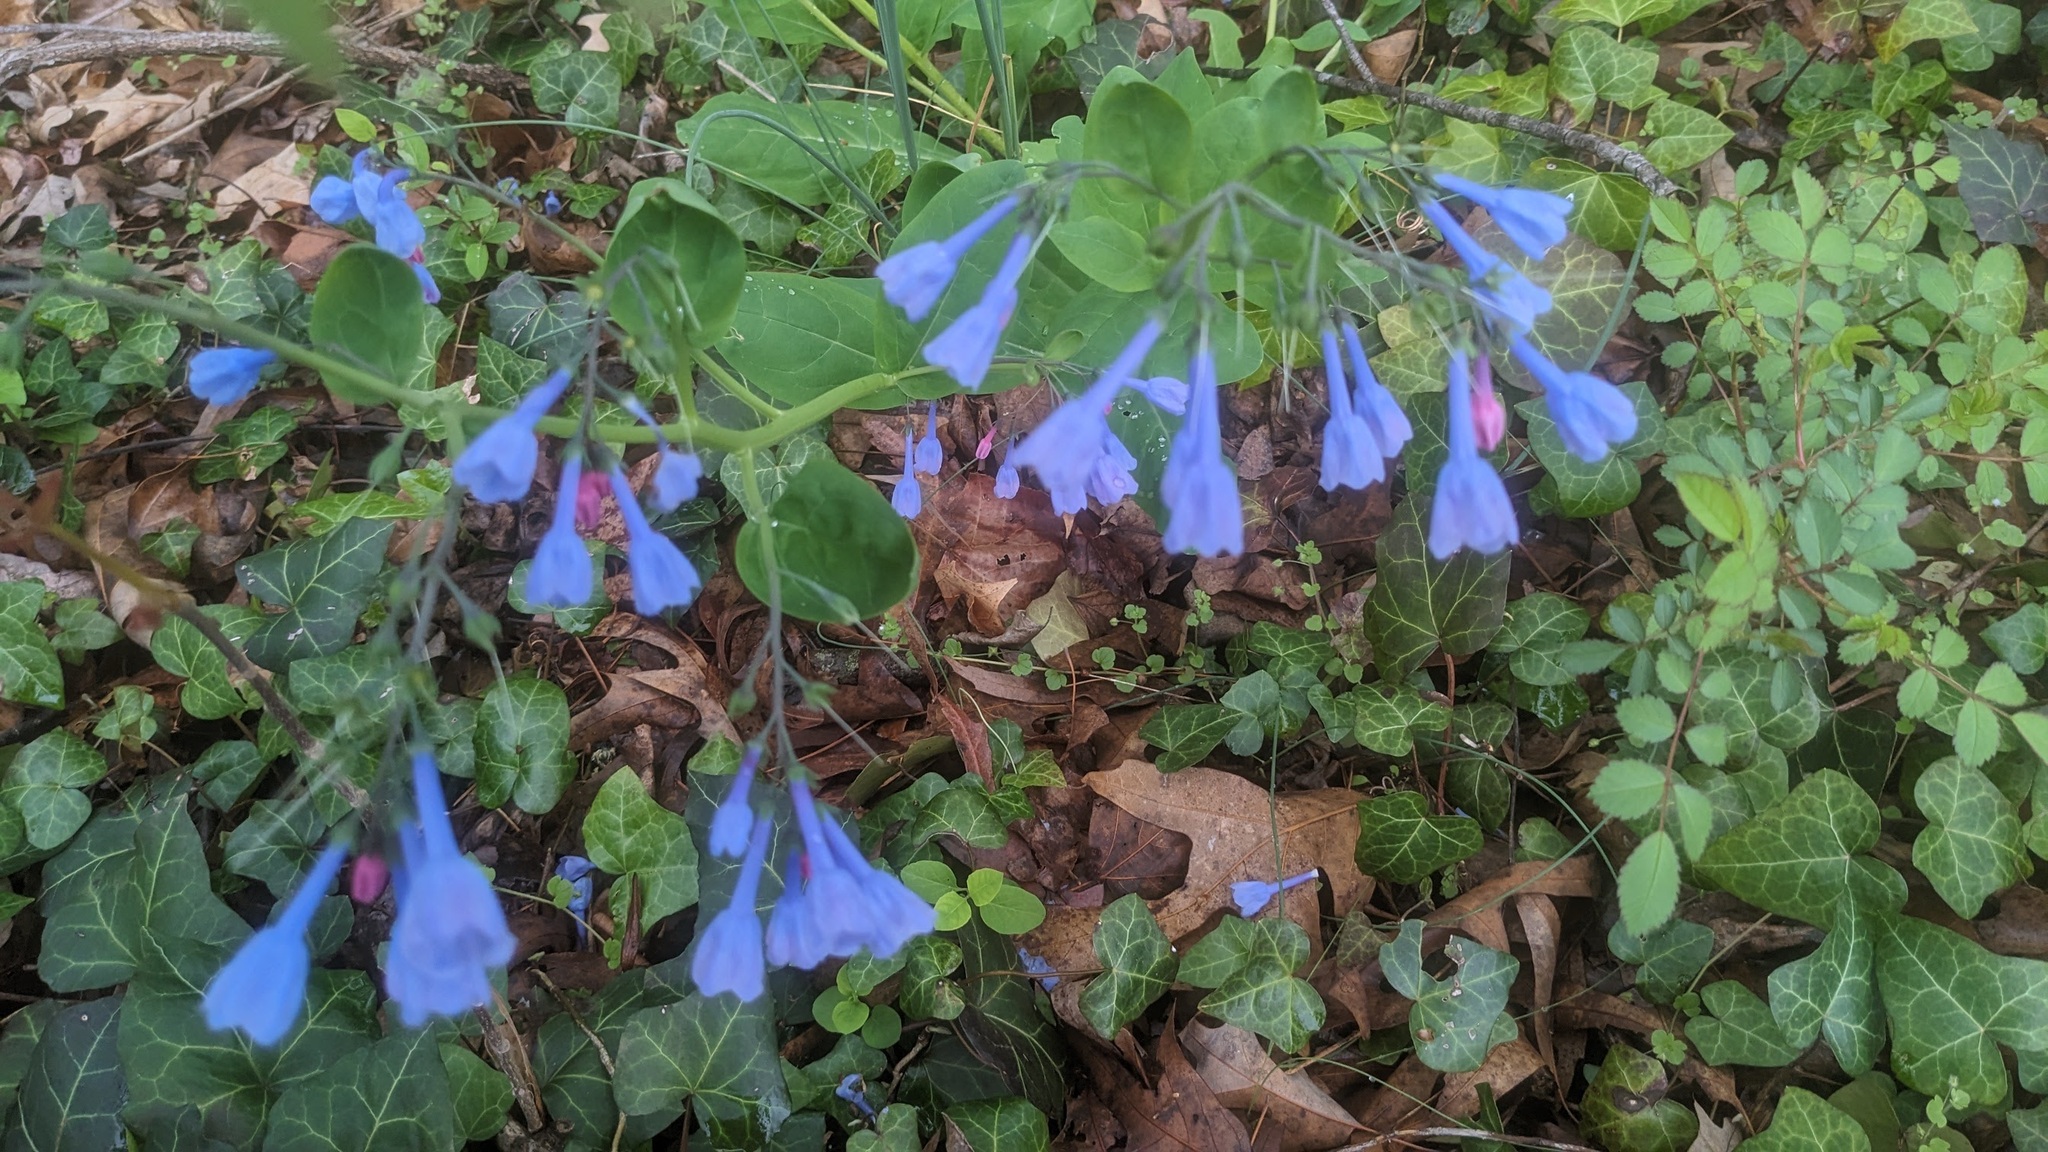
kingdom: Plantae
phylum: Tracheophyta
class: Magnoliopsida
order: Boraginales
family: Boraginaceae
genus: Mertensia
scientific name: Mertensia virginica
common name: Virginia bluebells
